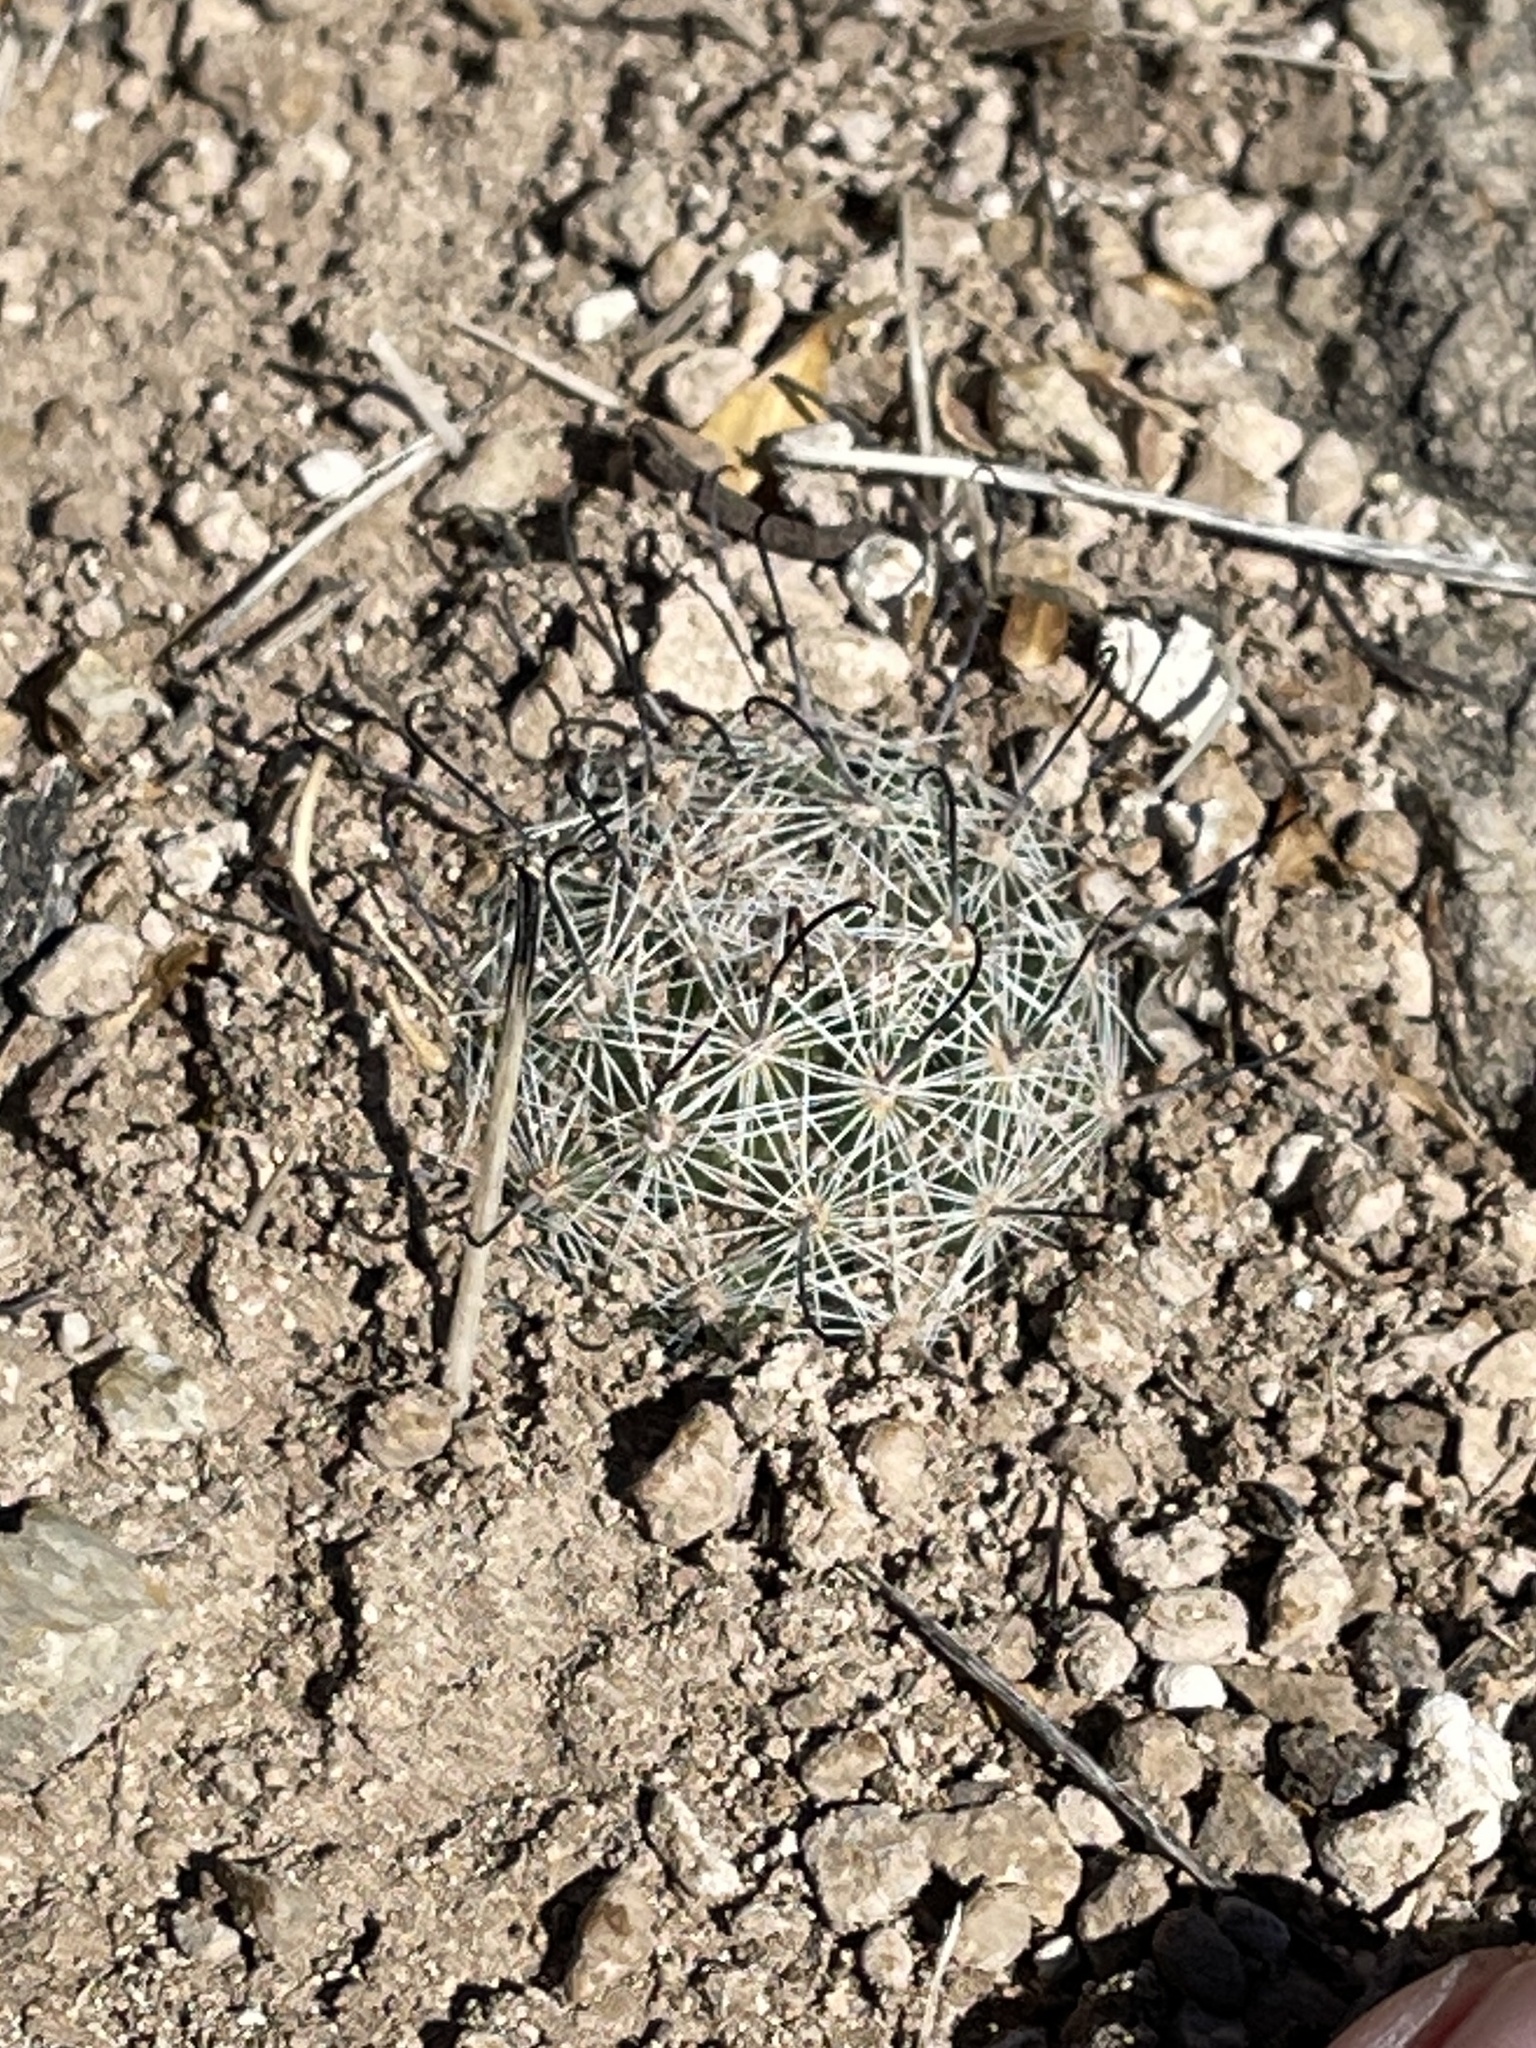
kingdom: Plantae
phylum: Tracheophyta
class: Magnoliopsida
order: Caryophyllales
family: Cactaceae
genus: Cochemiea
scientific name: Cochemiea grahamii
